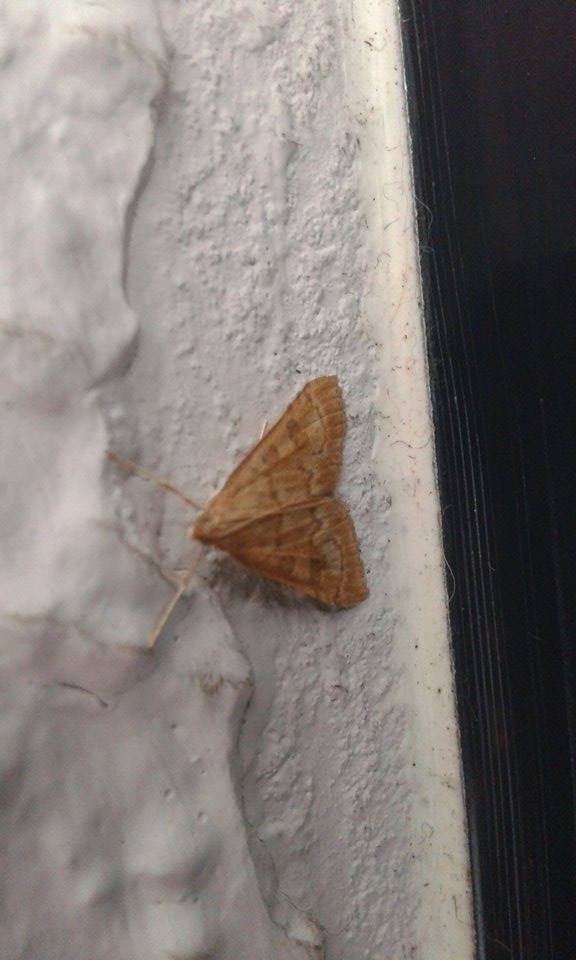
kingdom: Animalia
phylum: Arthropoda
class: Insecta
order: Lepidoptera
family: Crambidae
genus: Udea
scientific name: Udea fulvalis
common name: Fulvous pearl
